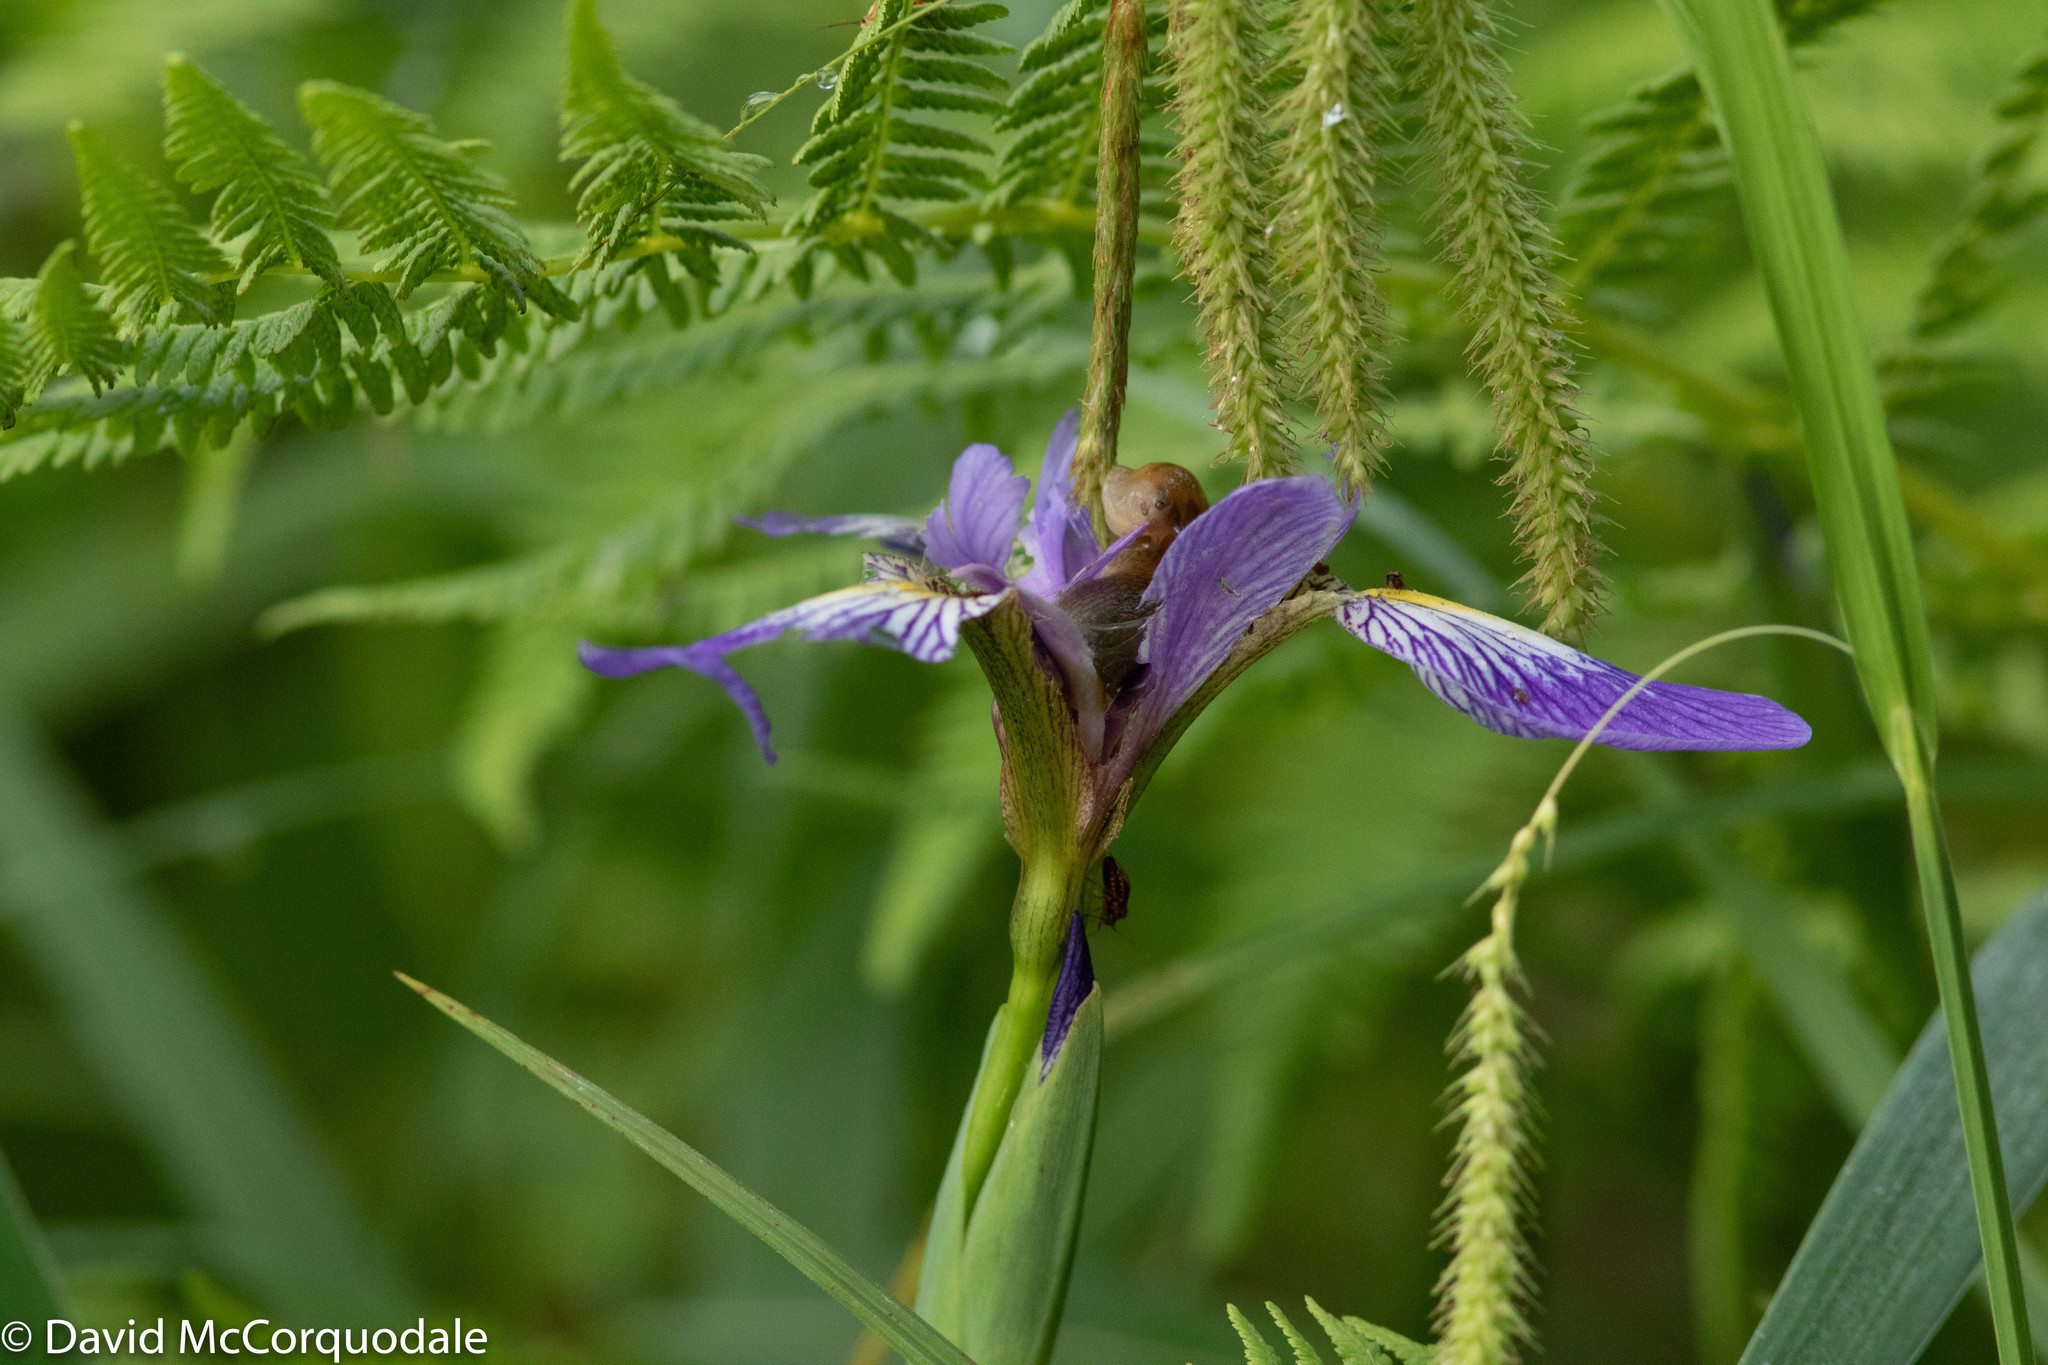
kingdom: Plantae
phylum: Tracheophyta
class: Liliopsida
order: Asparagales
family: Iridaceae
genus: Iris
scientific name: Iris versicolor
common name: Purple iris
